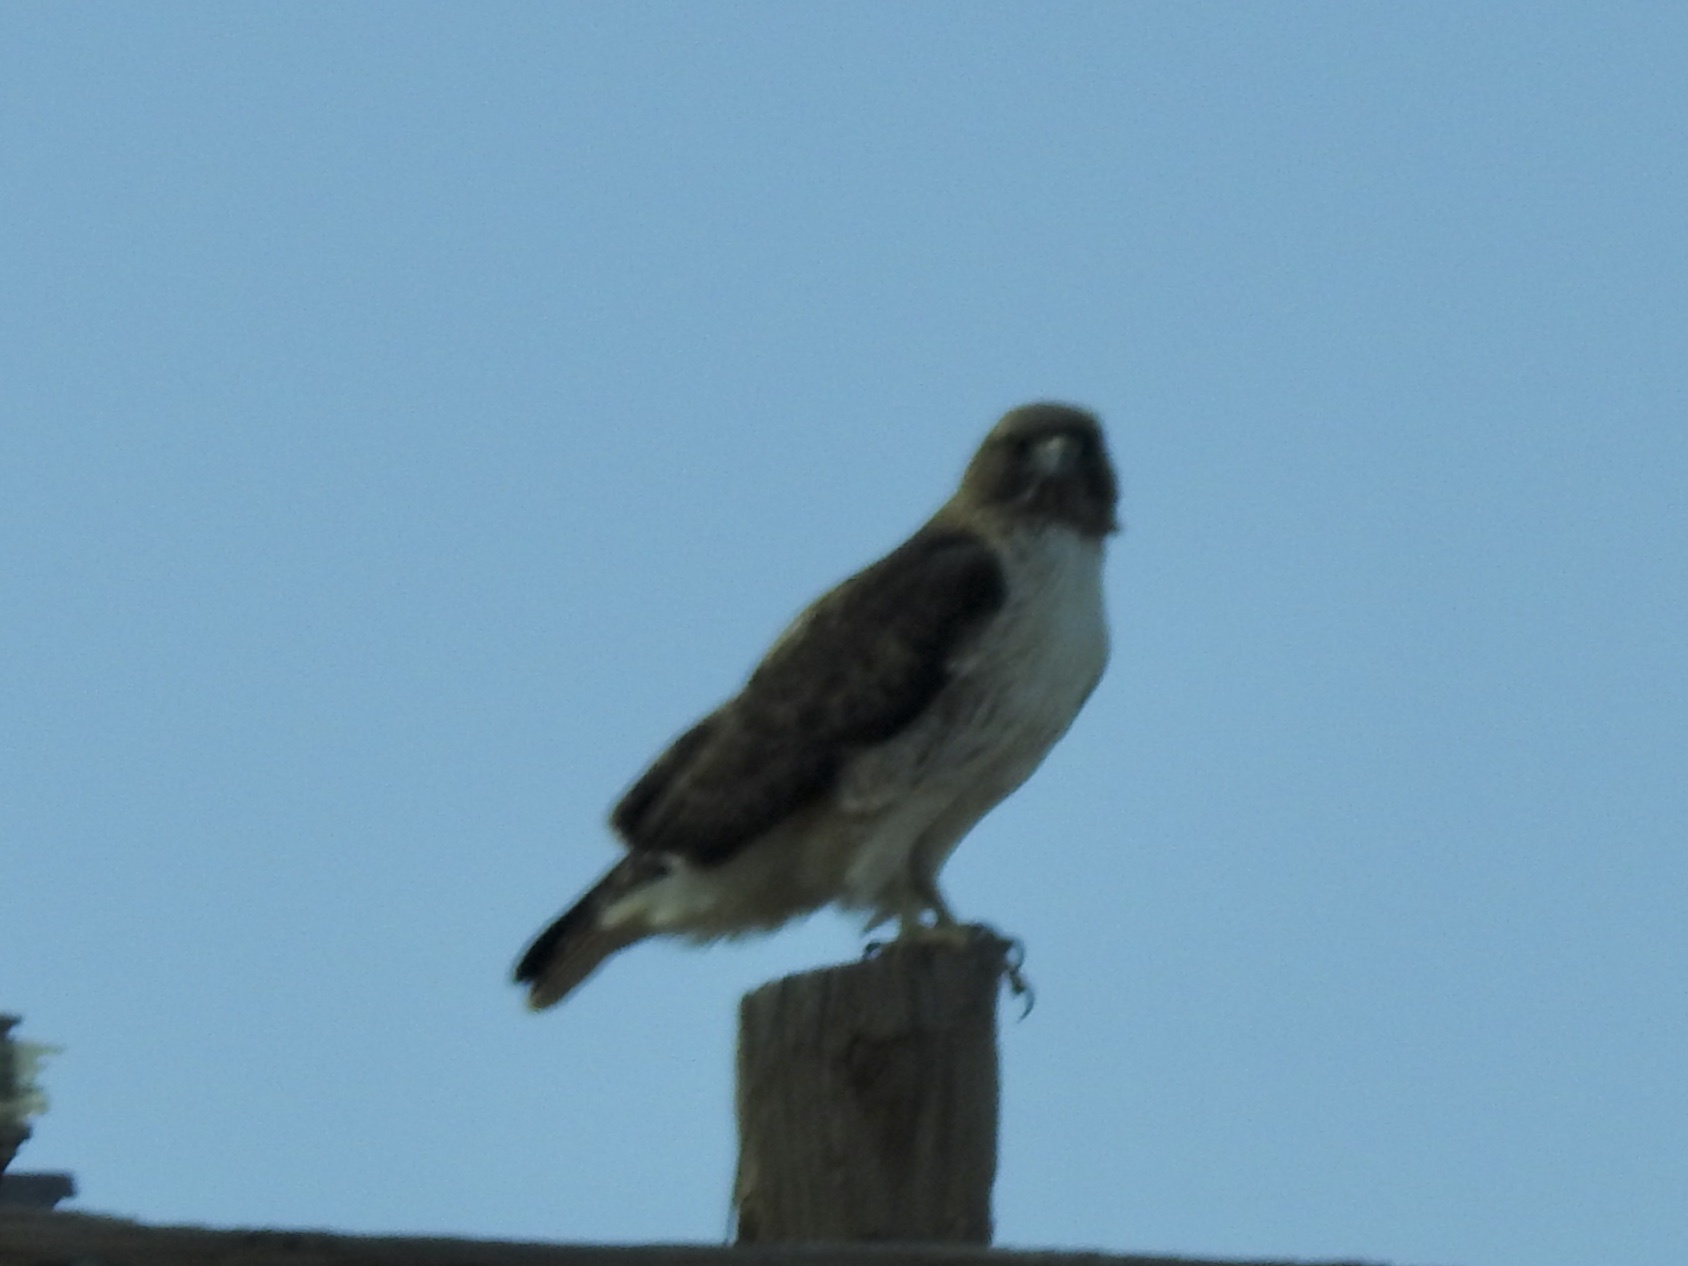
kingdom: Animalia
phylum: Chordata
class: Aves
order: Accipitriformes
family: Accipitridae
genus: Buteo
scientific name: Buteo jamaicensis
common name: Red-tailed hawk
